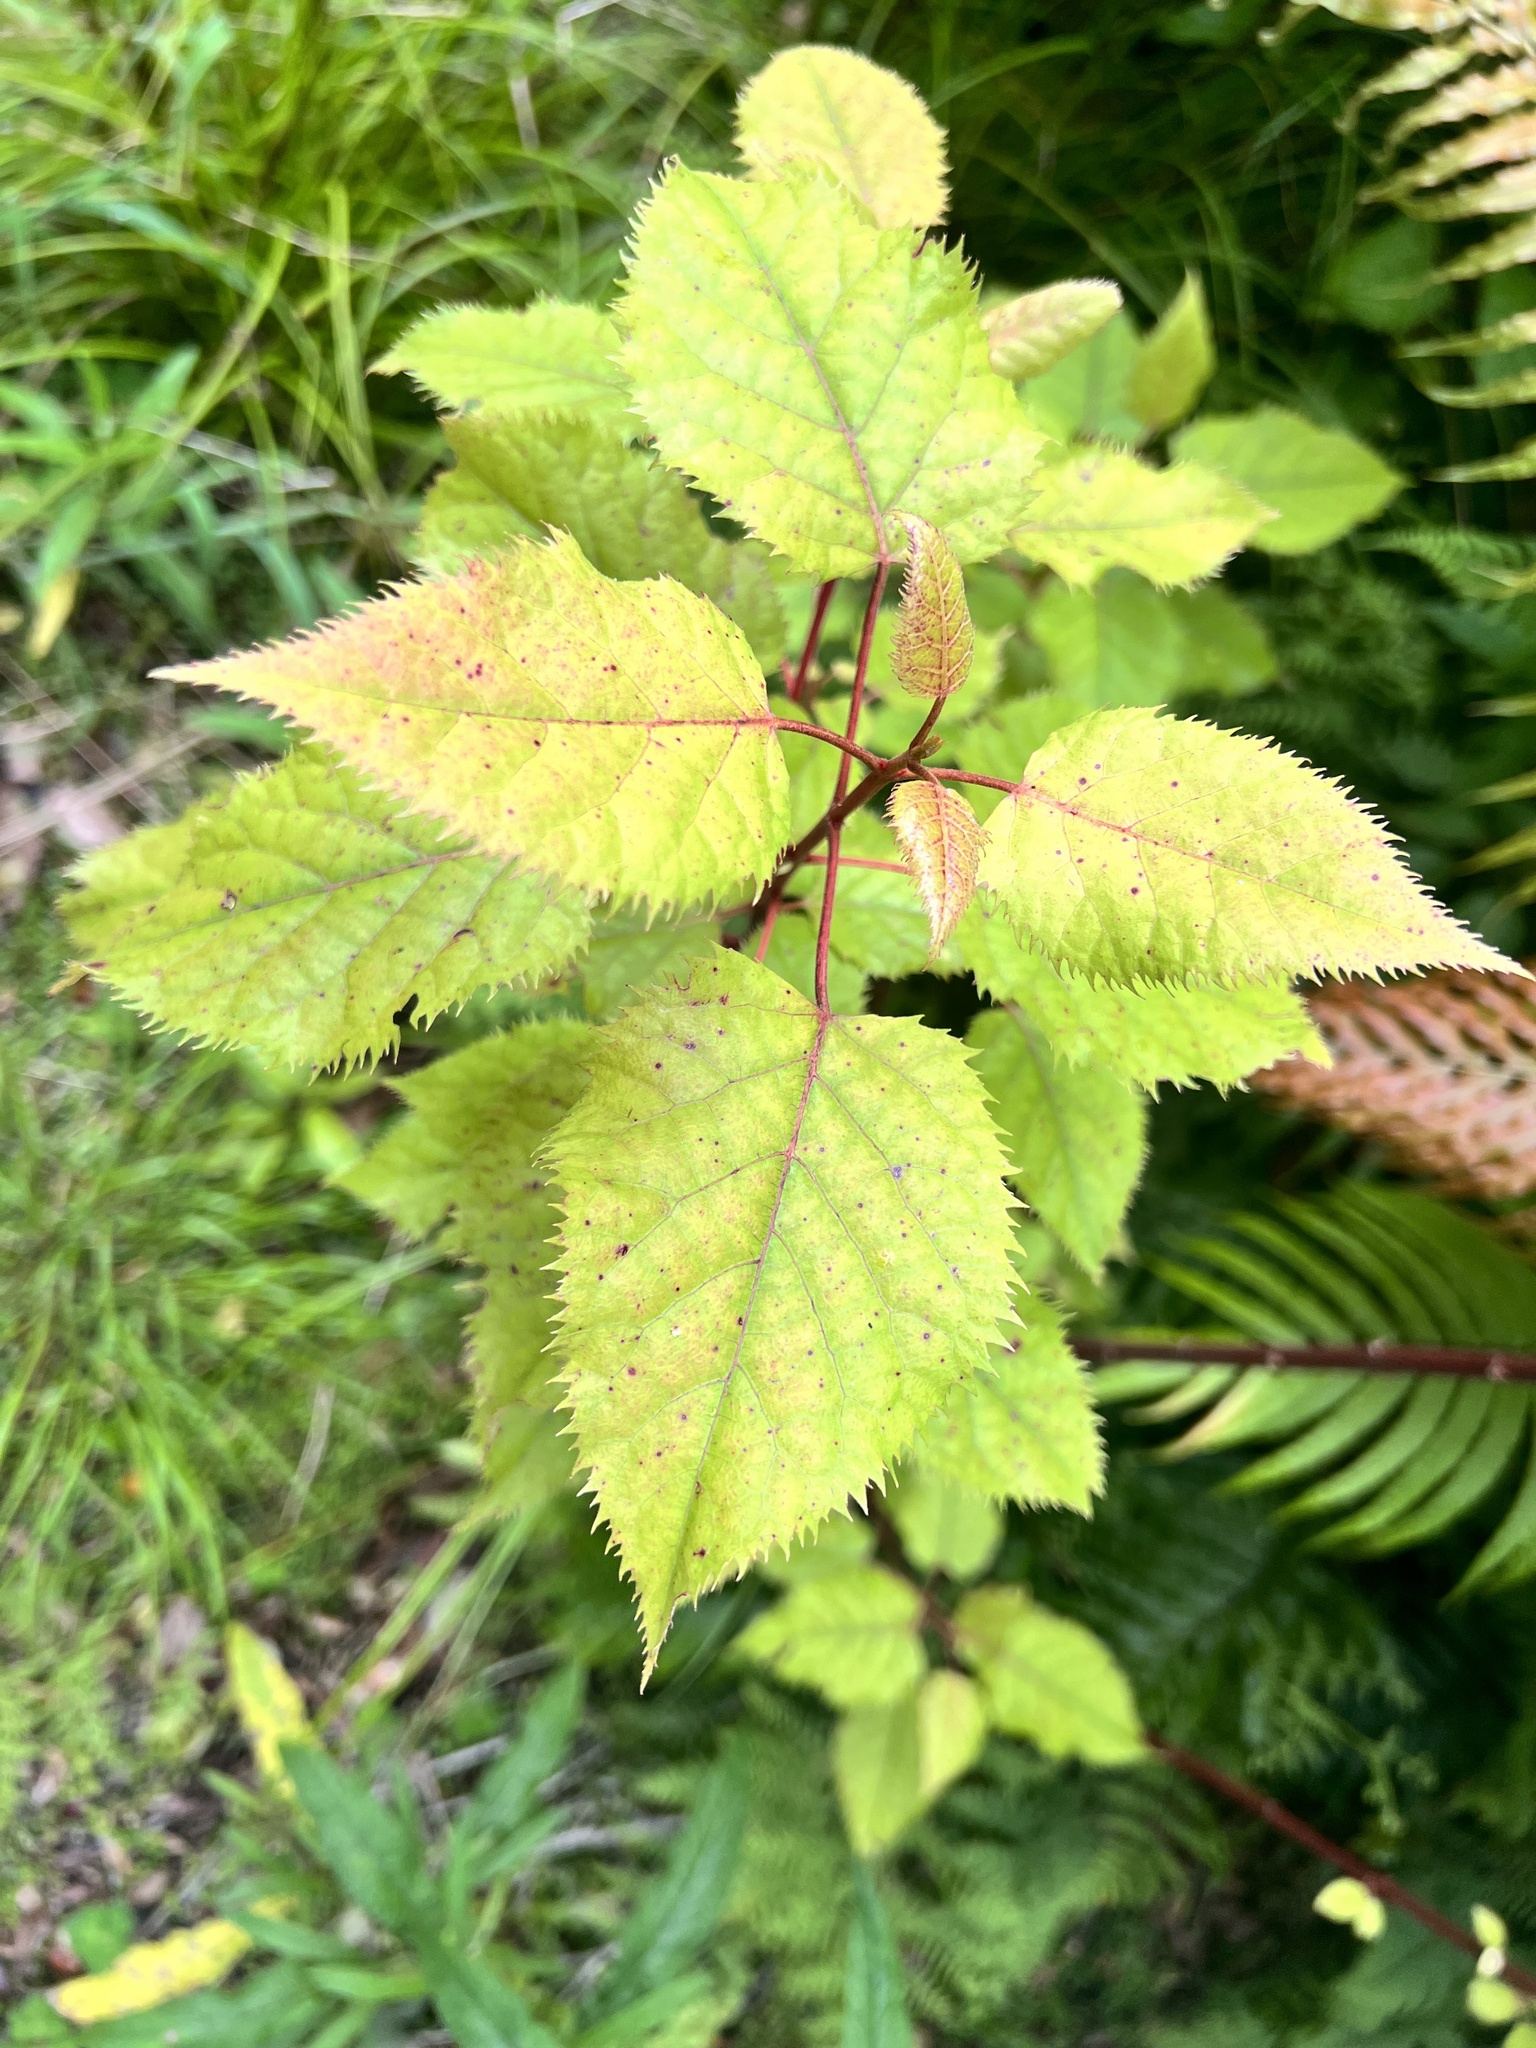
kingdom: Plantae
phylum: Tracheophyta
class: Magnoliopsida
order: Oxalidales
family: Elaeocarpaceae
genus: Aristotelia
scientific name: Aristotelia serrata
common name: New zealand wineberry
